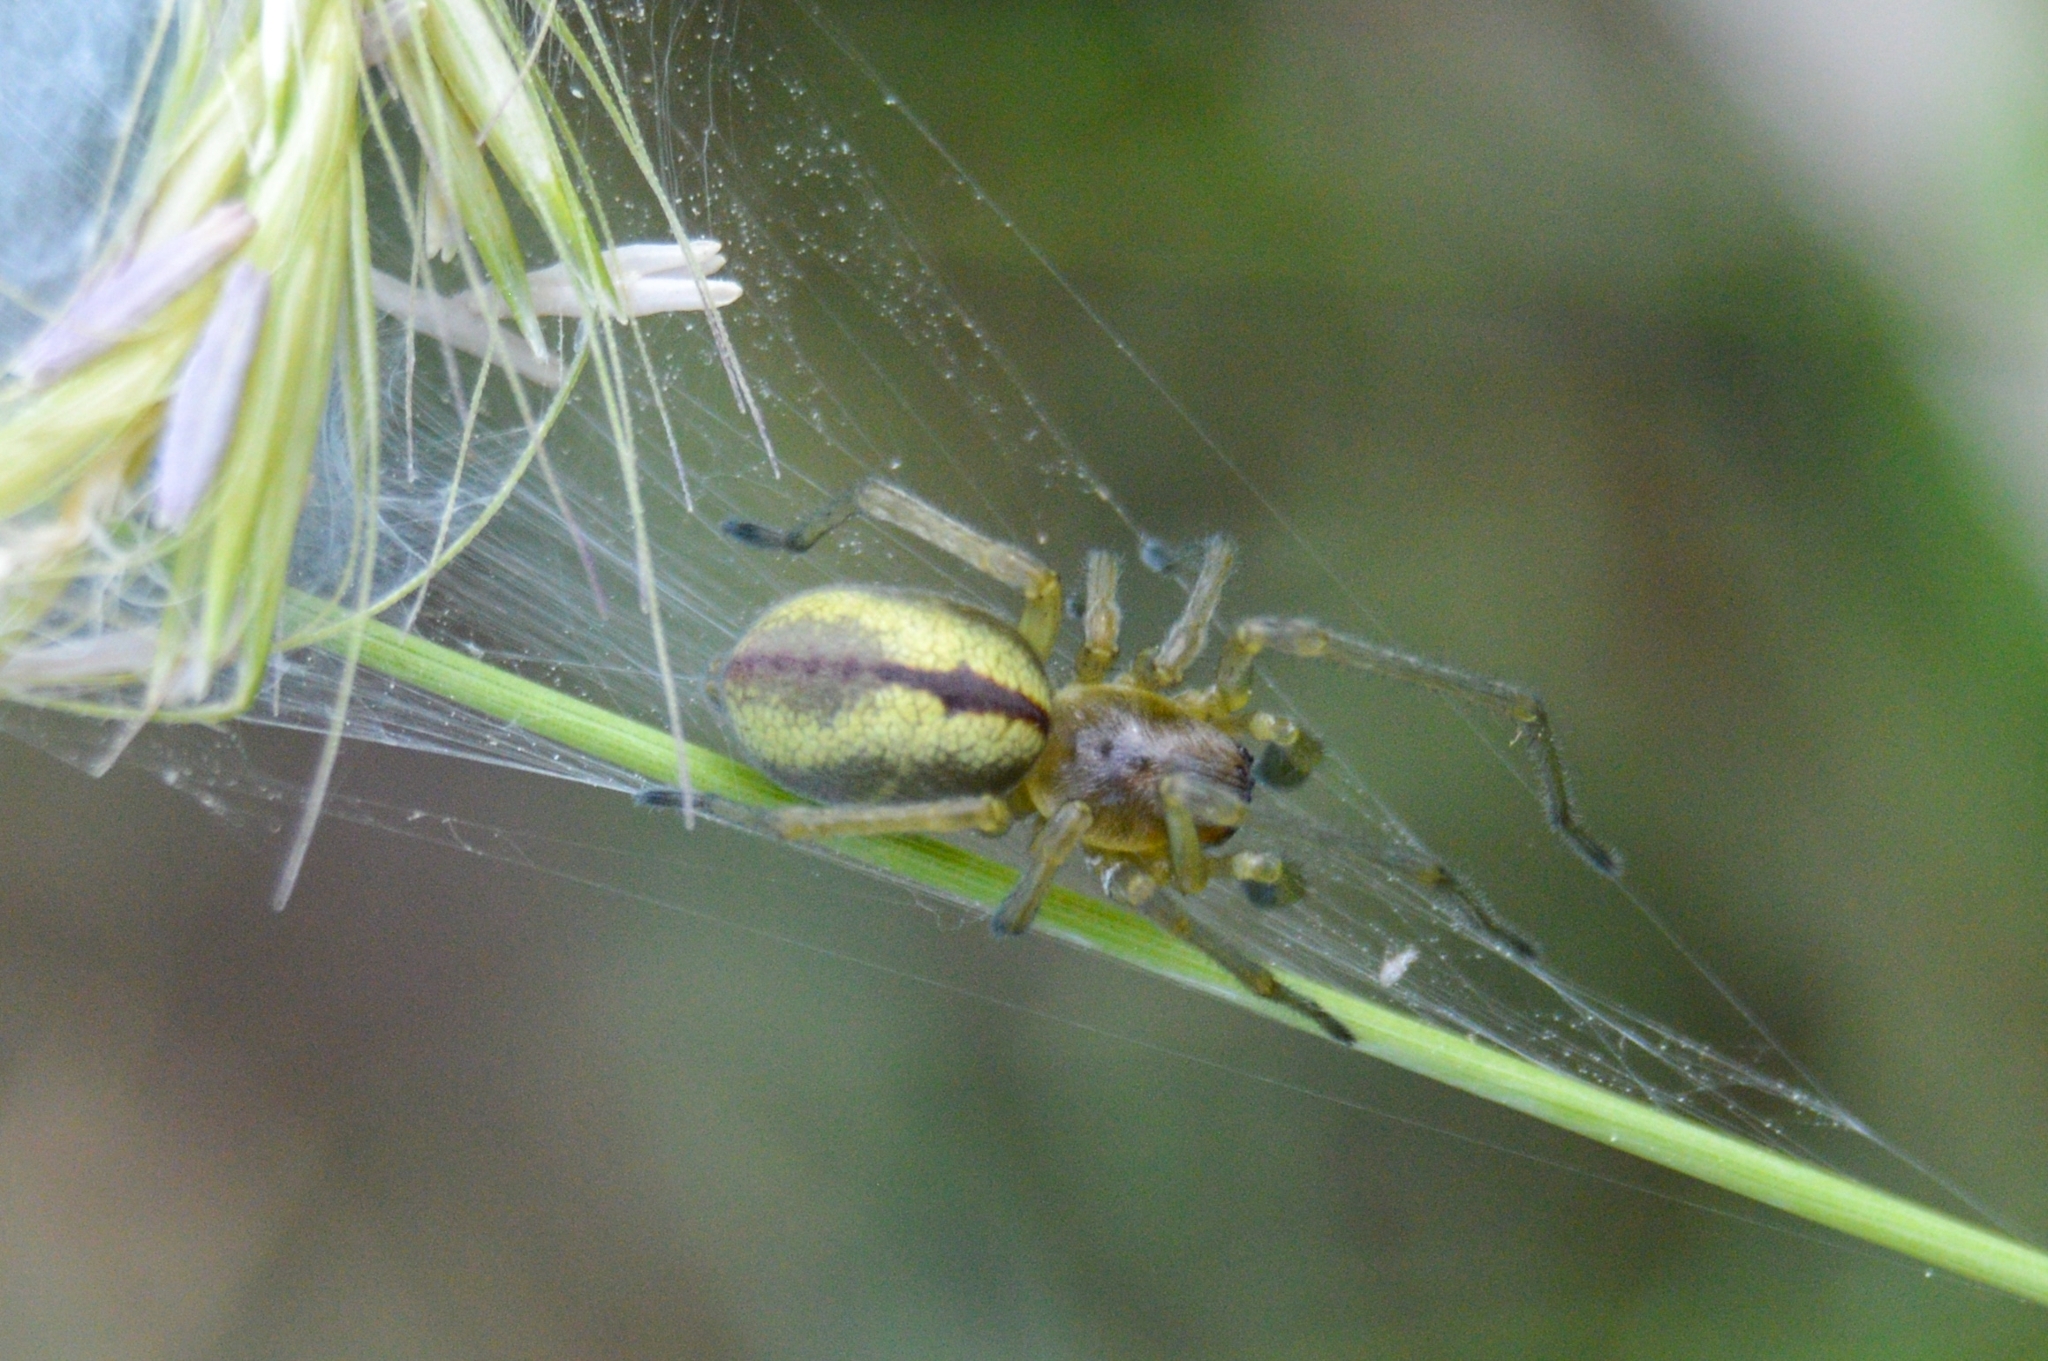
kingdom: Animalia
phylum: Arthropoda
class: Arachnida
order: Araneae
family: Cheiracanthiidae
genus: Cheiracanthium
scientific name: Cheiracanthium erraticum
